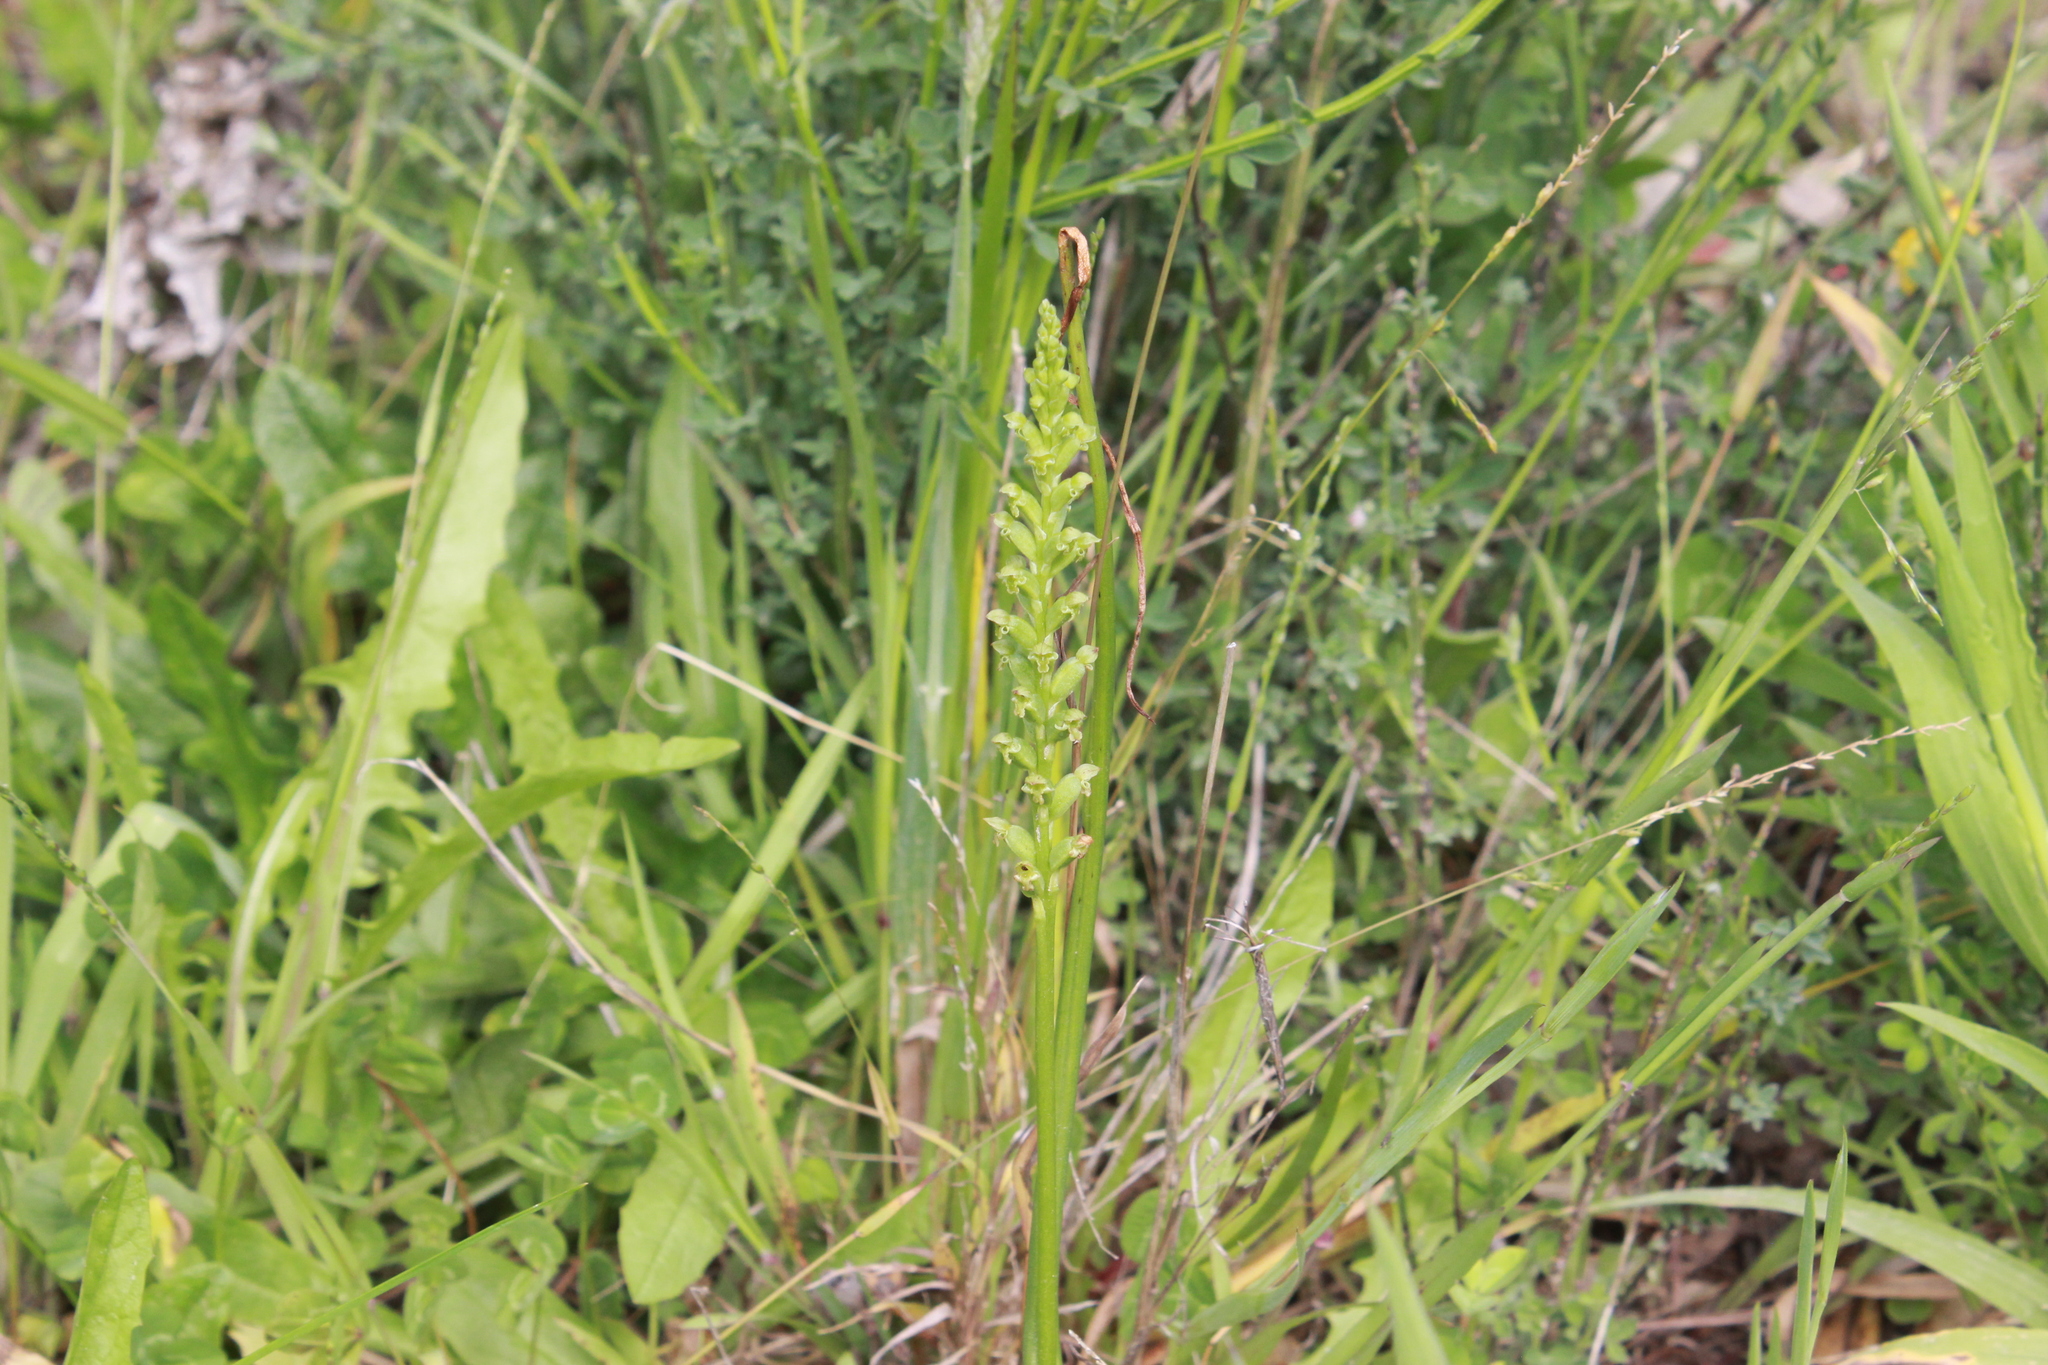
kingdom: Plantae
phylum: Tracheophyta
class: Liliopsida
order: Asparagales
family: Orchidaceae
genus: Microtis
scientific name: Microtis unifolia
